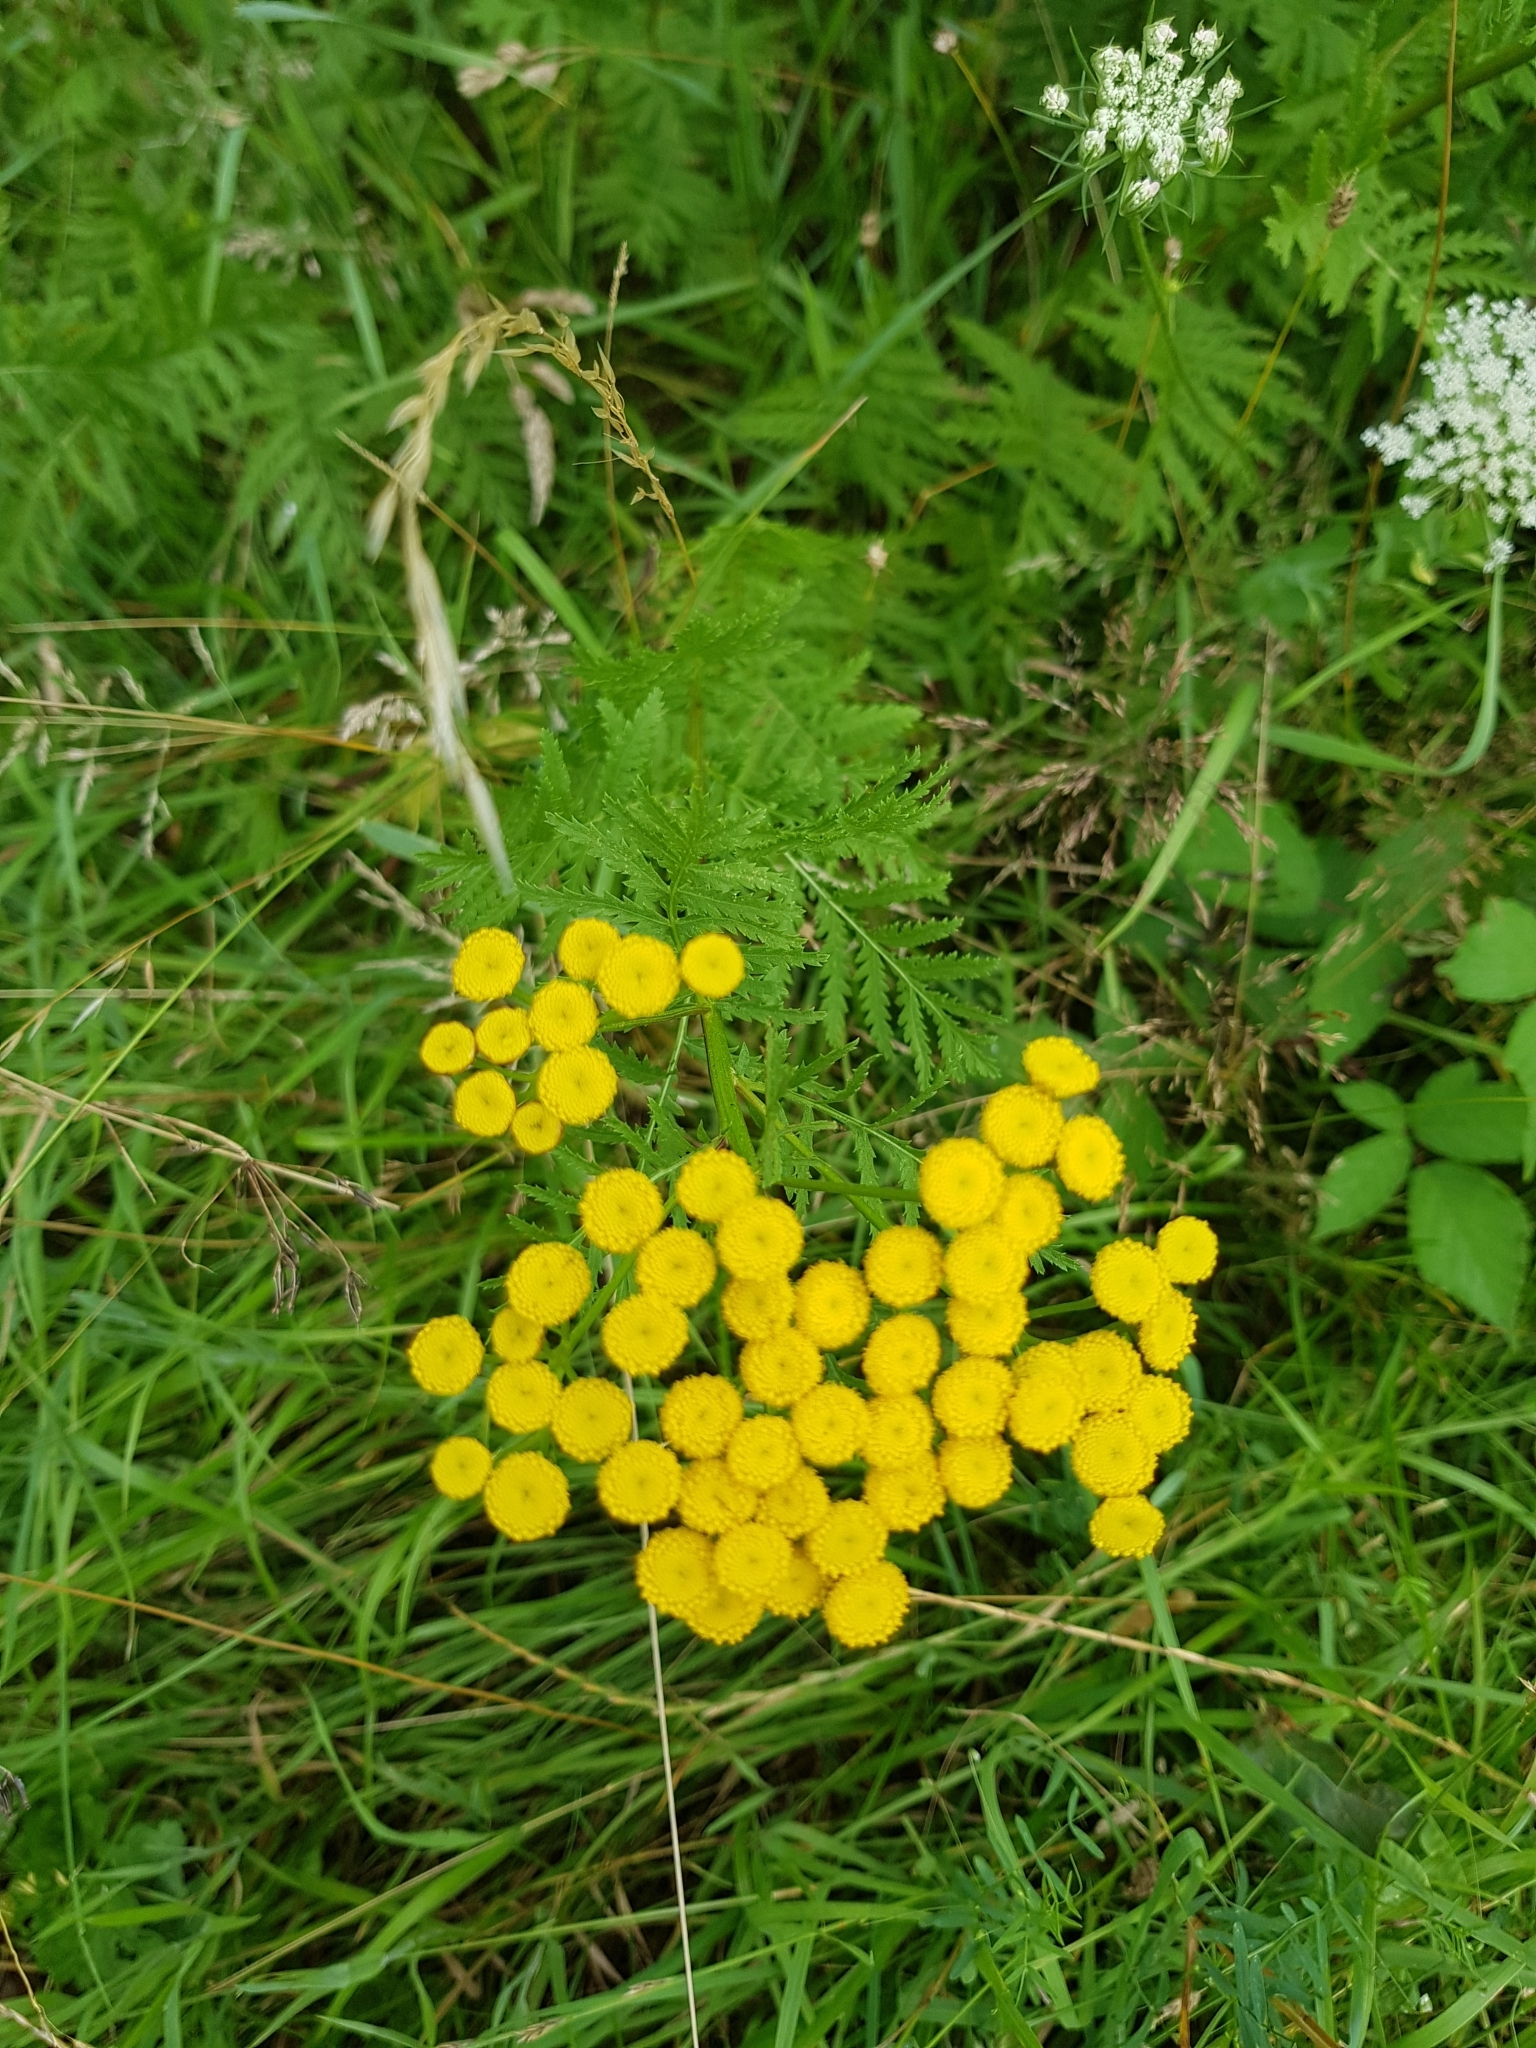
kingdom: Plantae
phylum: Tracheophyta
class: Magnoliopsida
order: Asterales
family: Asteraceae
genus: Tanacetum
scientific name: Tanacetum vulgare
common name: Common tansy
